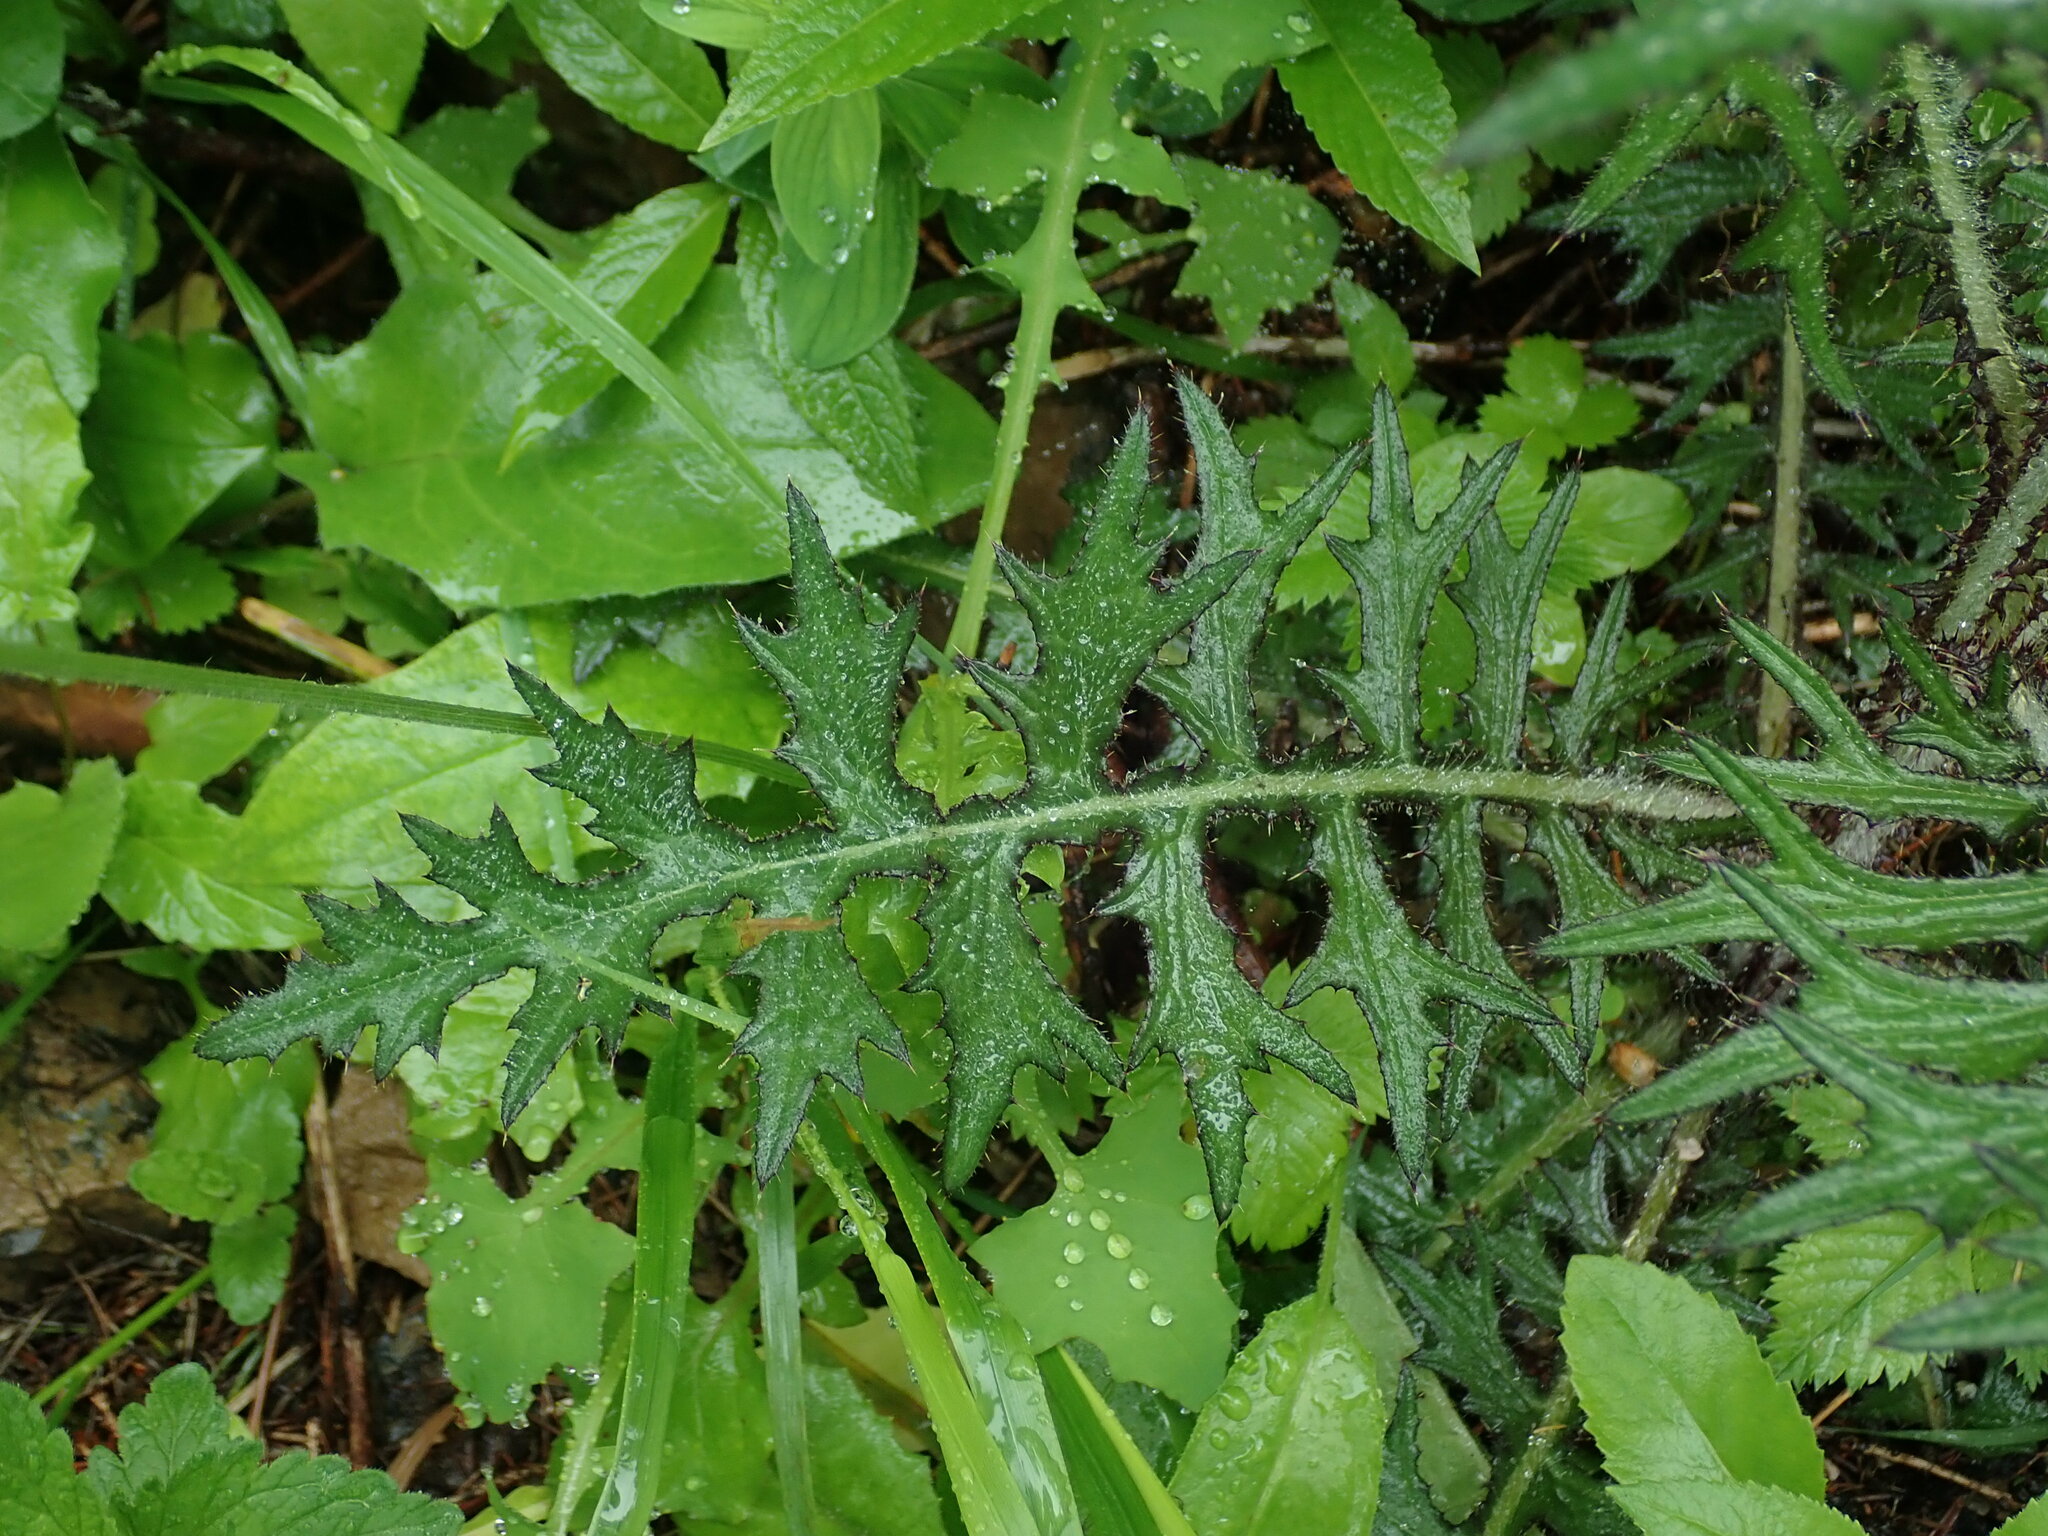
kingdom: Plantae
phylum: Tracheophyta
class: Magnoliopsida
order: Asterales
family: Asteraceae
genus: Cirsium
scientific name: Cirsium palustre
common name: Marsh thistle
